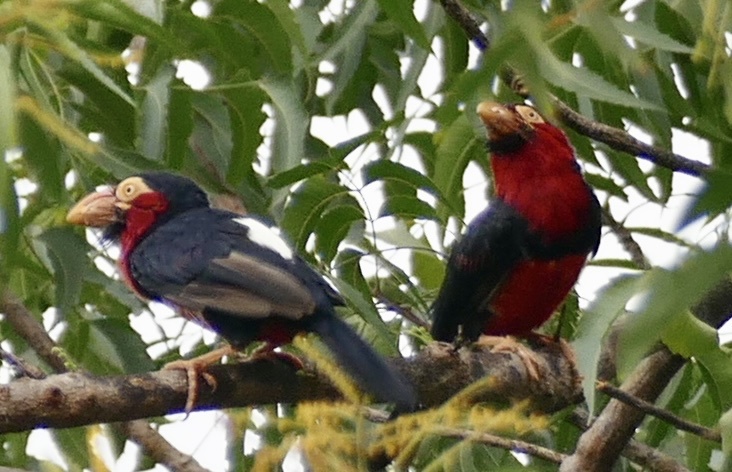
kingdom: Animalia
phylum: Chordata
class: Aves
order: Piciformes
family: Lybiidae
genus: Lybius
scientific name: Lybius dubius
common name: Bearded barbet
